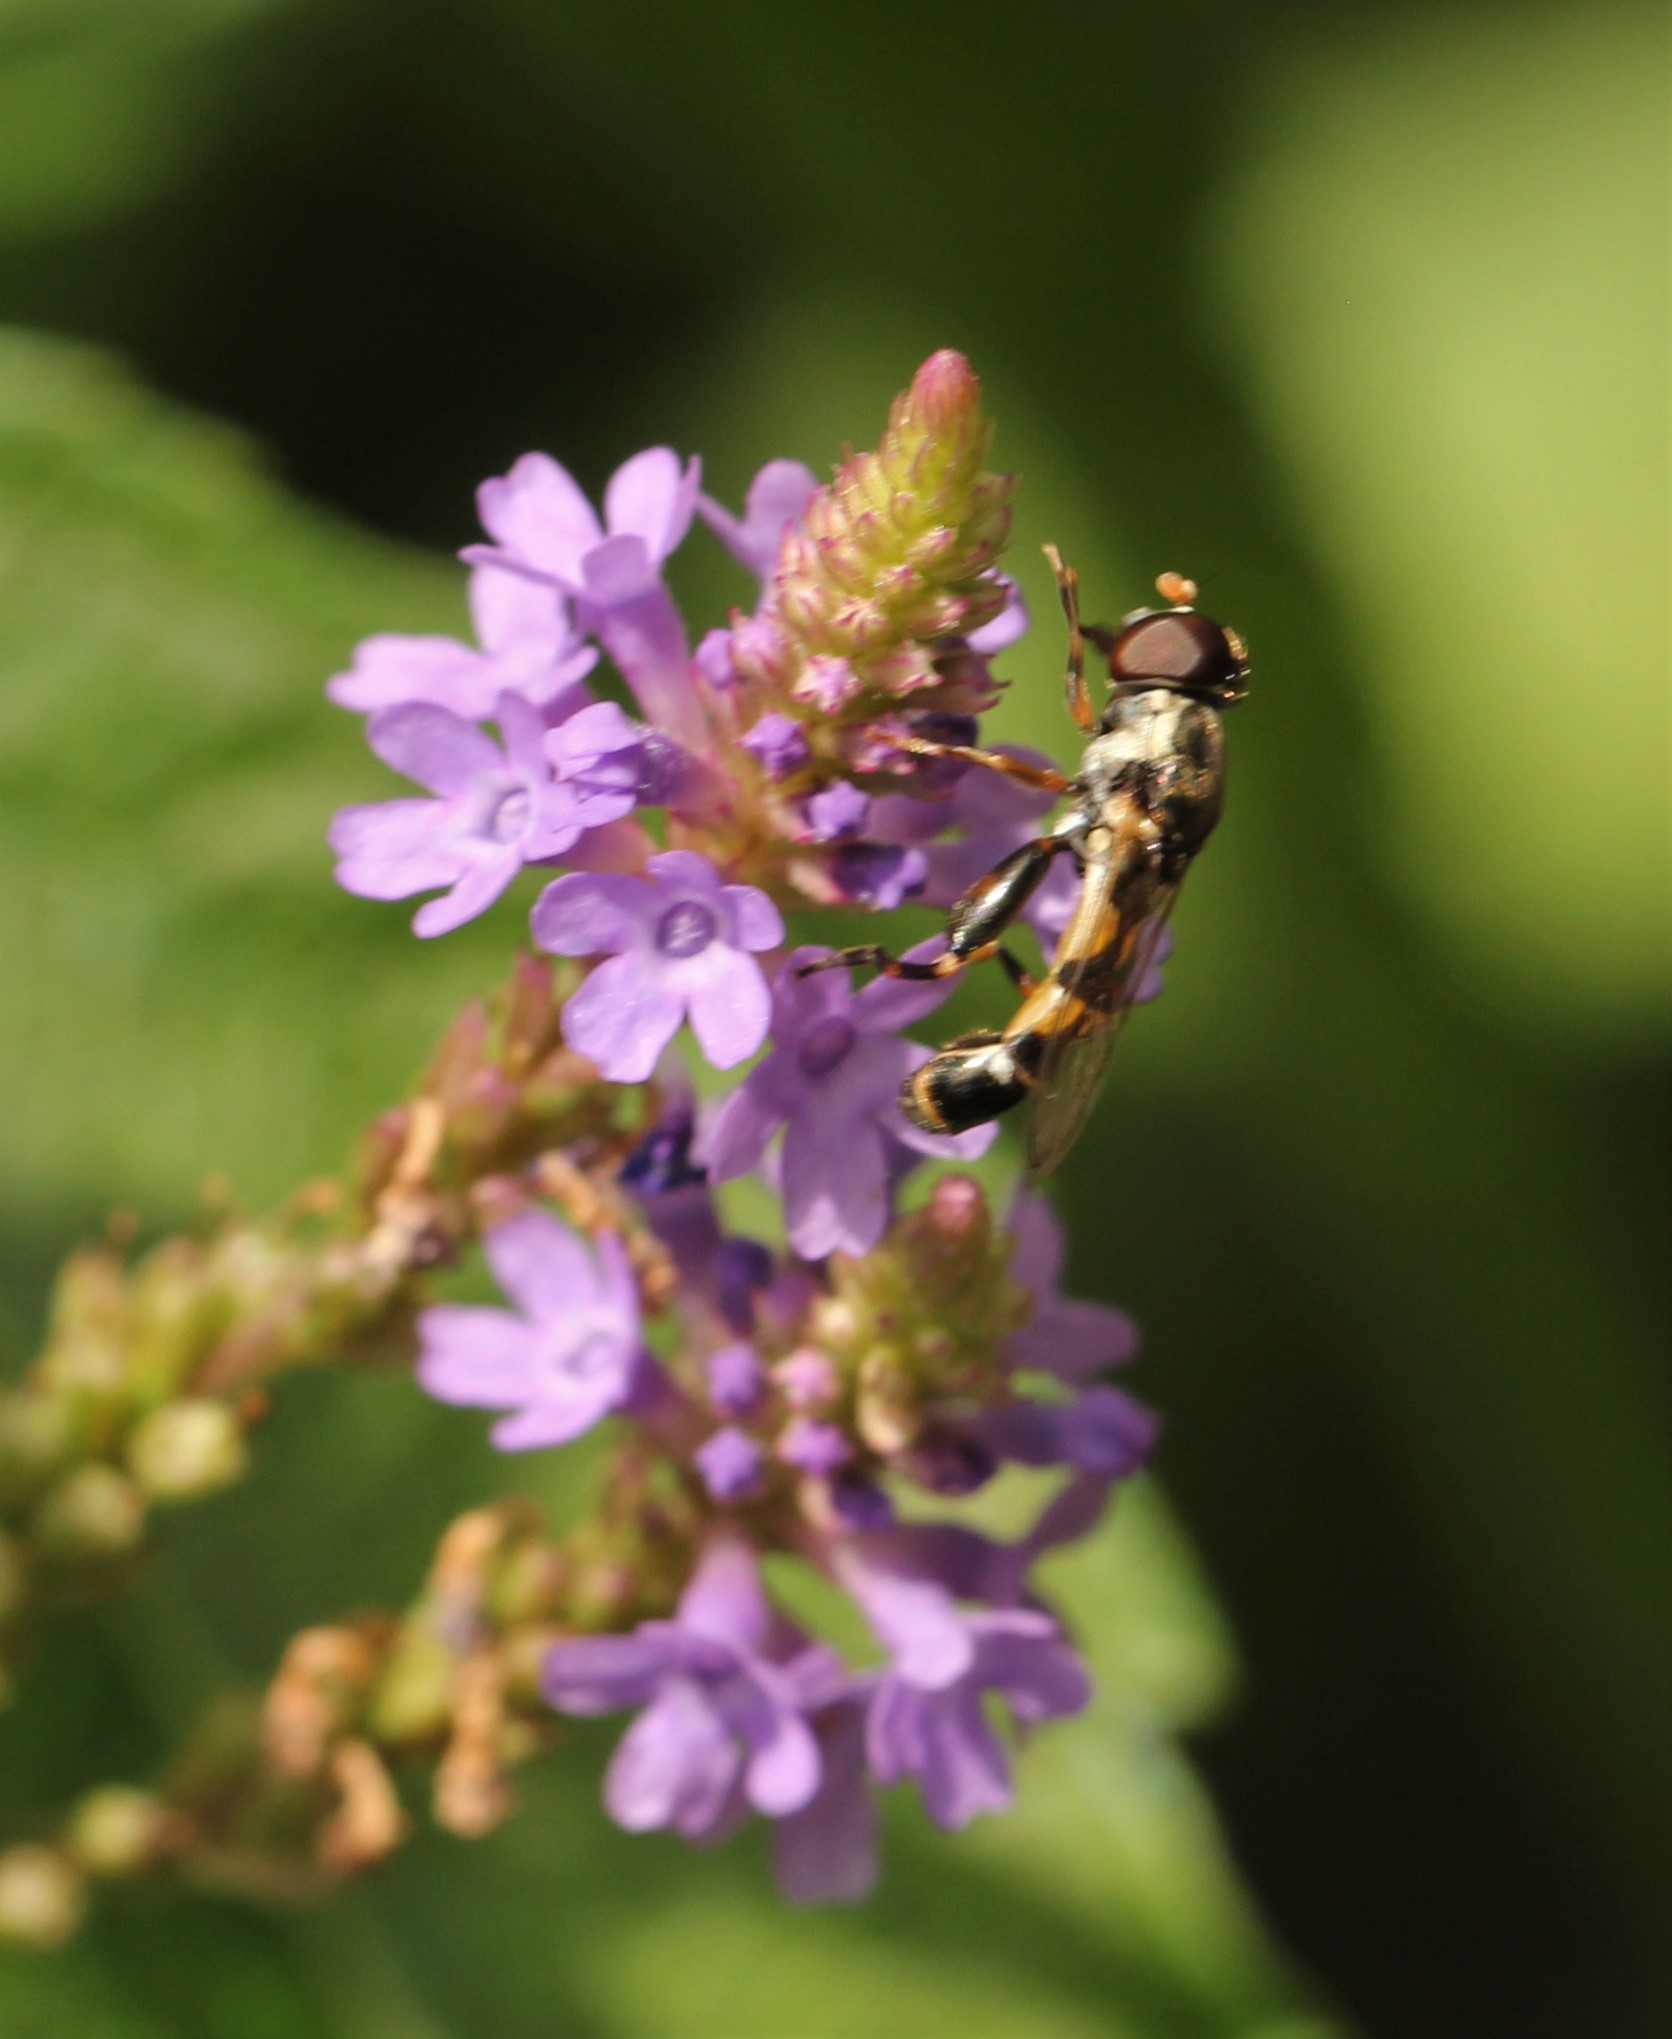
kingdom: Animalia
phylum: Arthropoda
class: Insecta
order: Diptera
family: Syrphidae
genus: Syritta
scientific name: Syritta pipiens
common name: Hover fly
